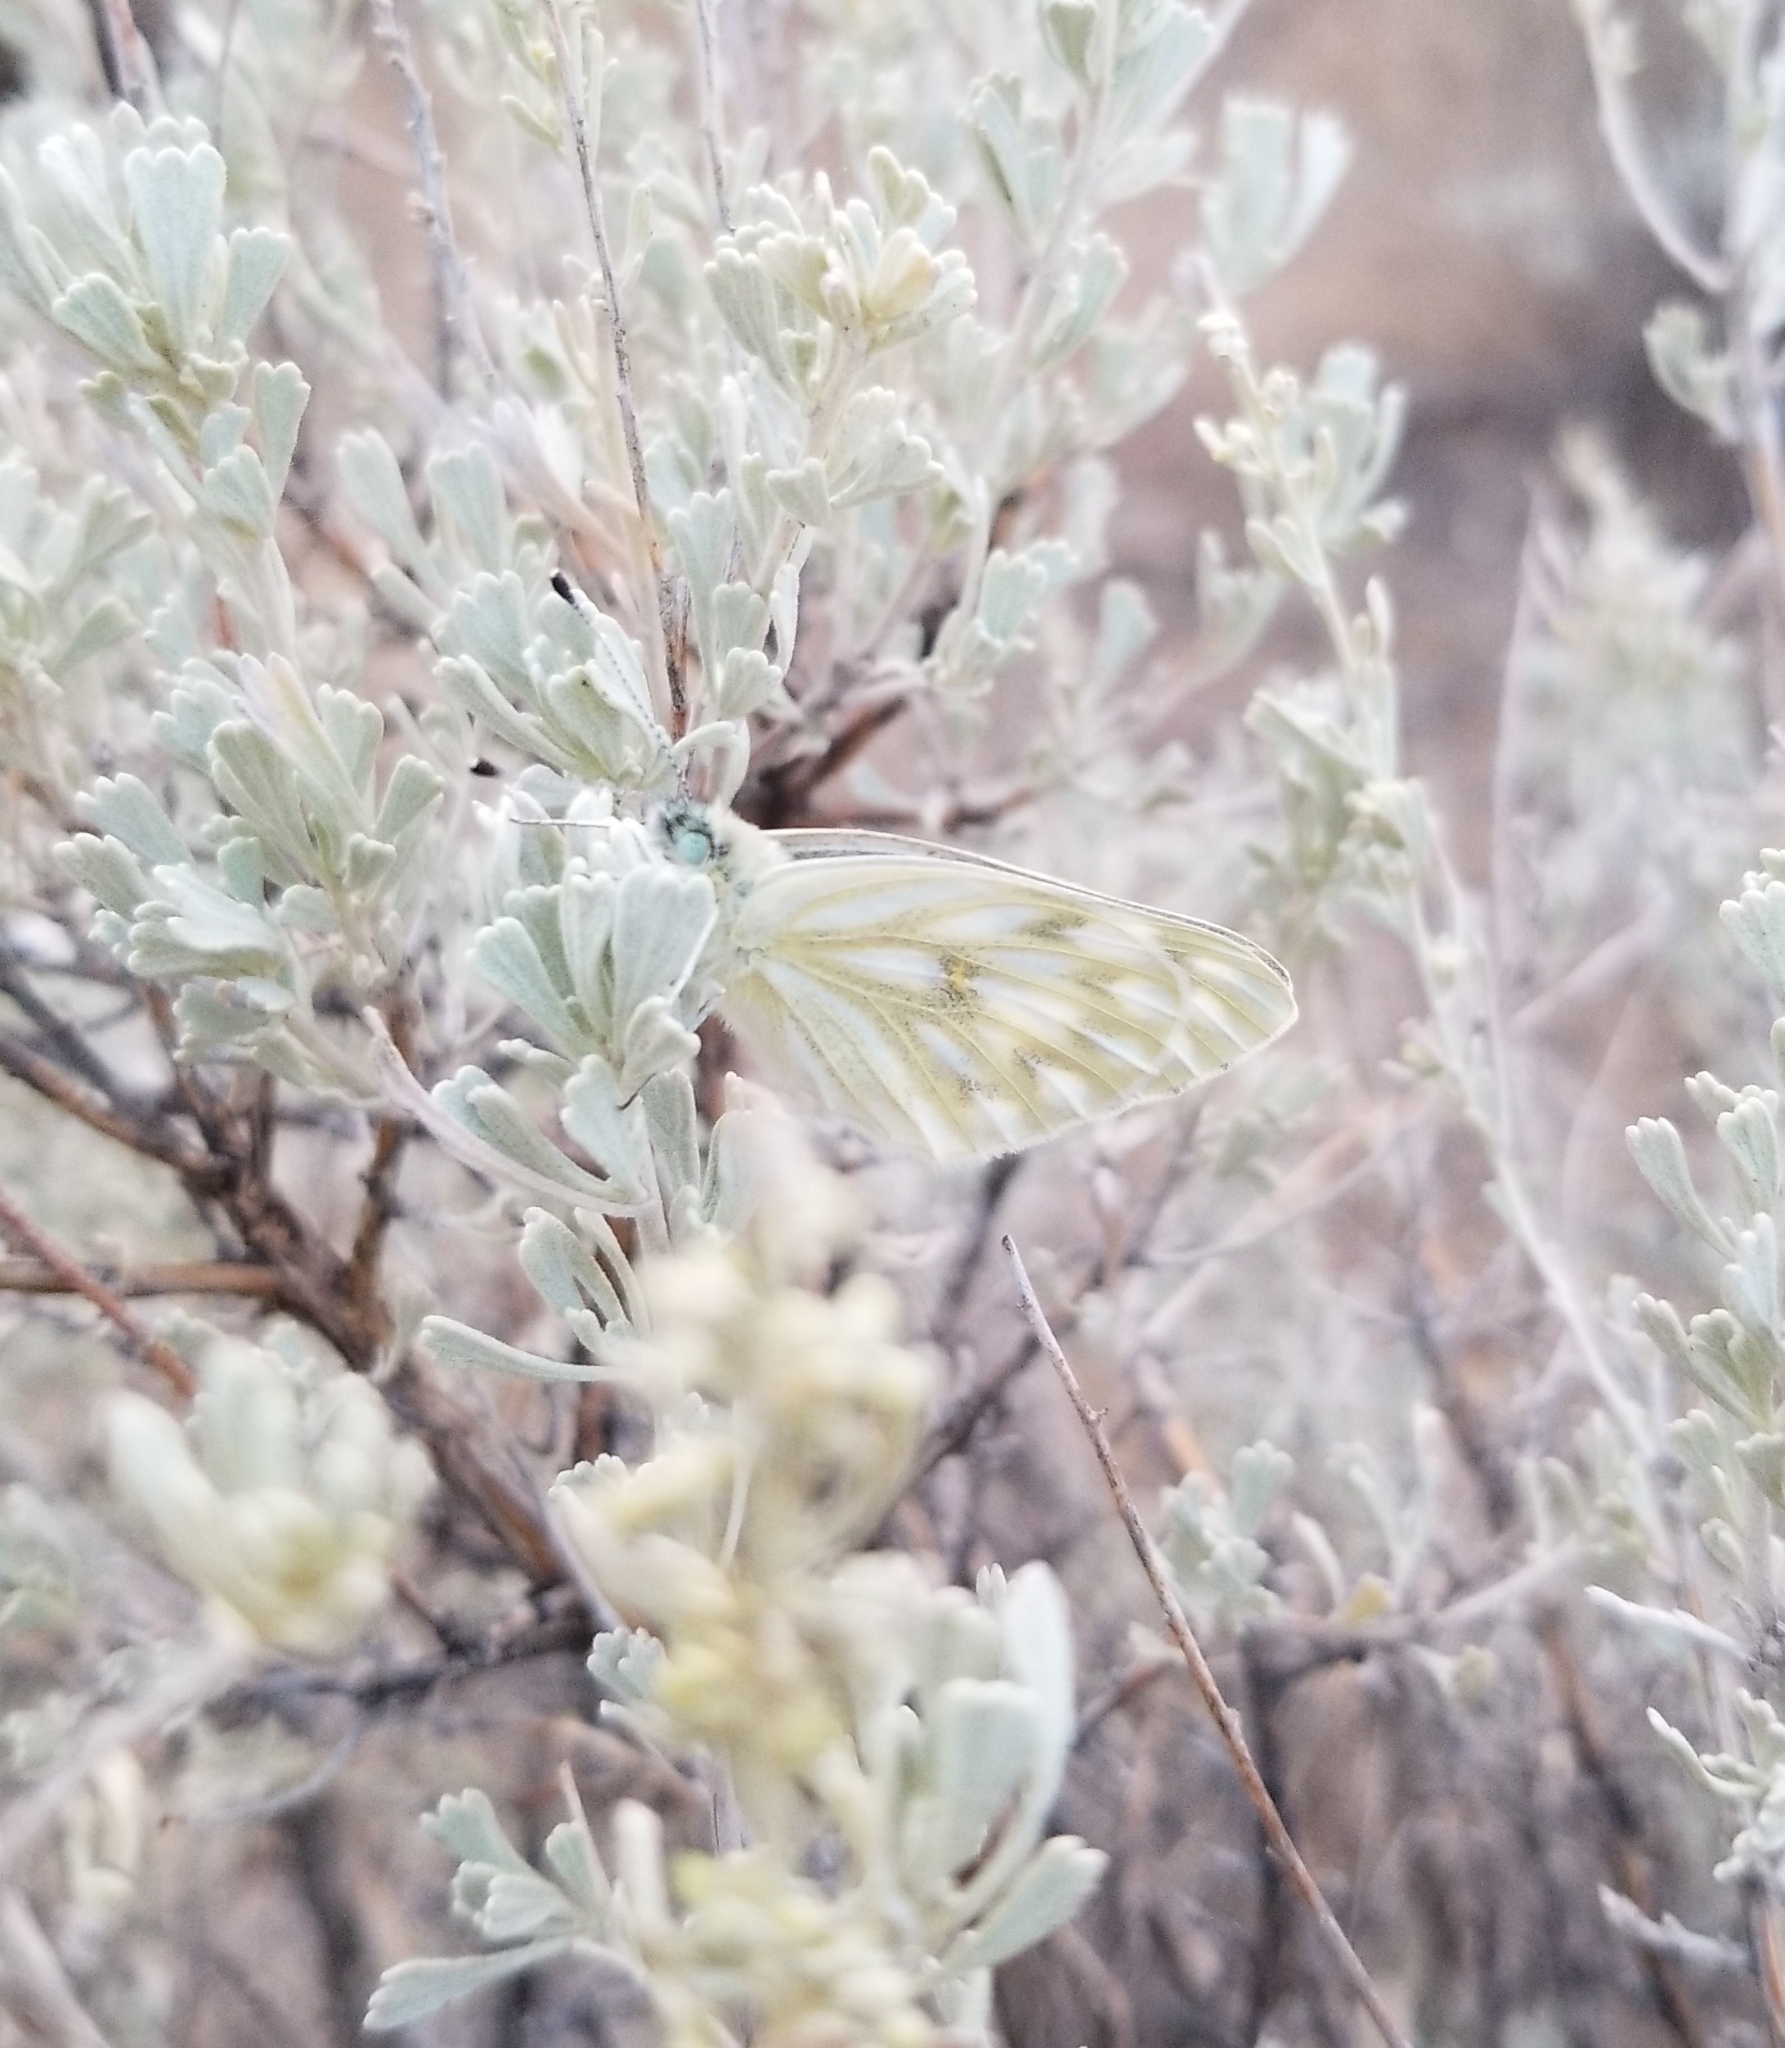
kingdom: Animalia
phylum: Arthropoda
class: Insecta
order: Lepidoptera
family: Pieridae
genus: Pontia
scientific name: Pontia occidentalis
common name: Western white
